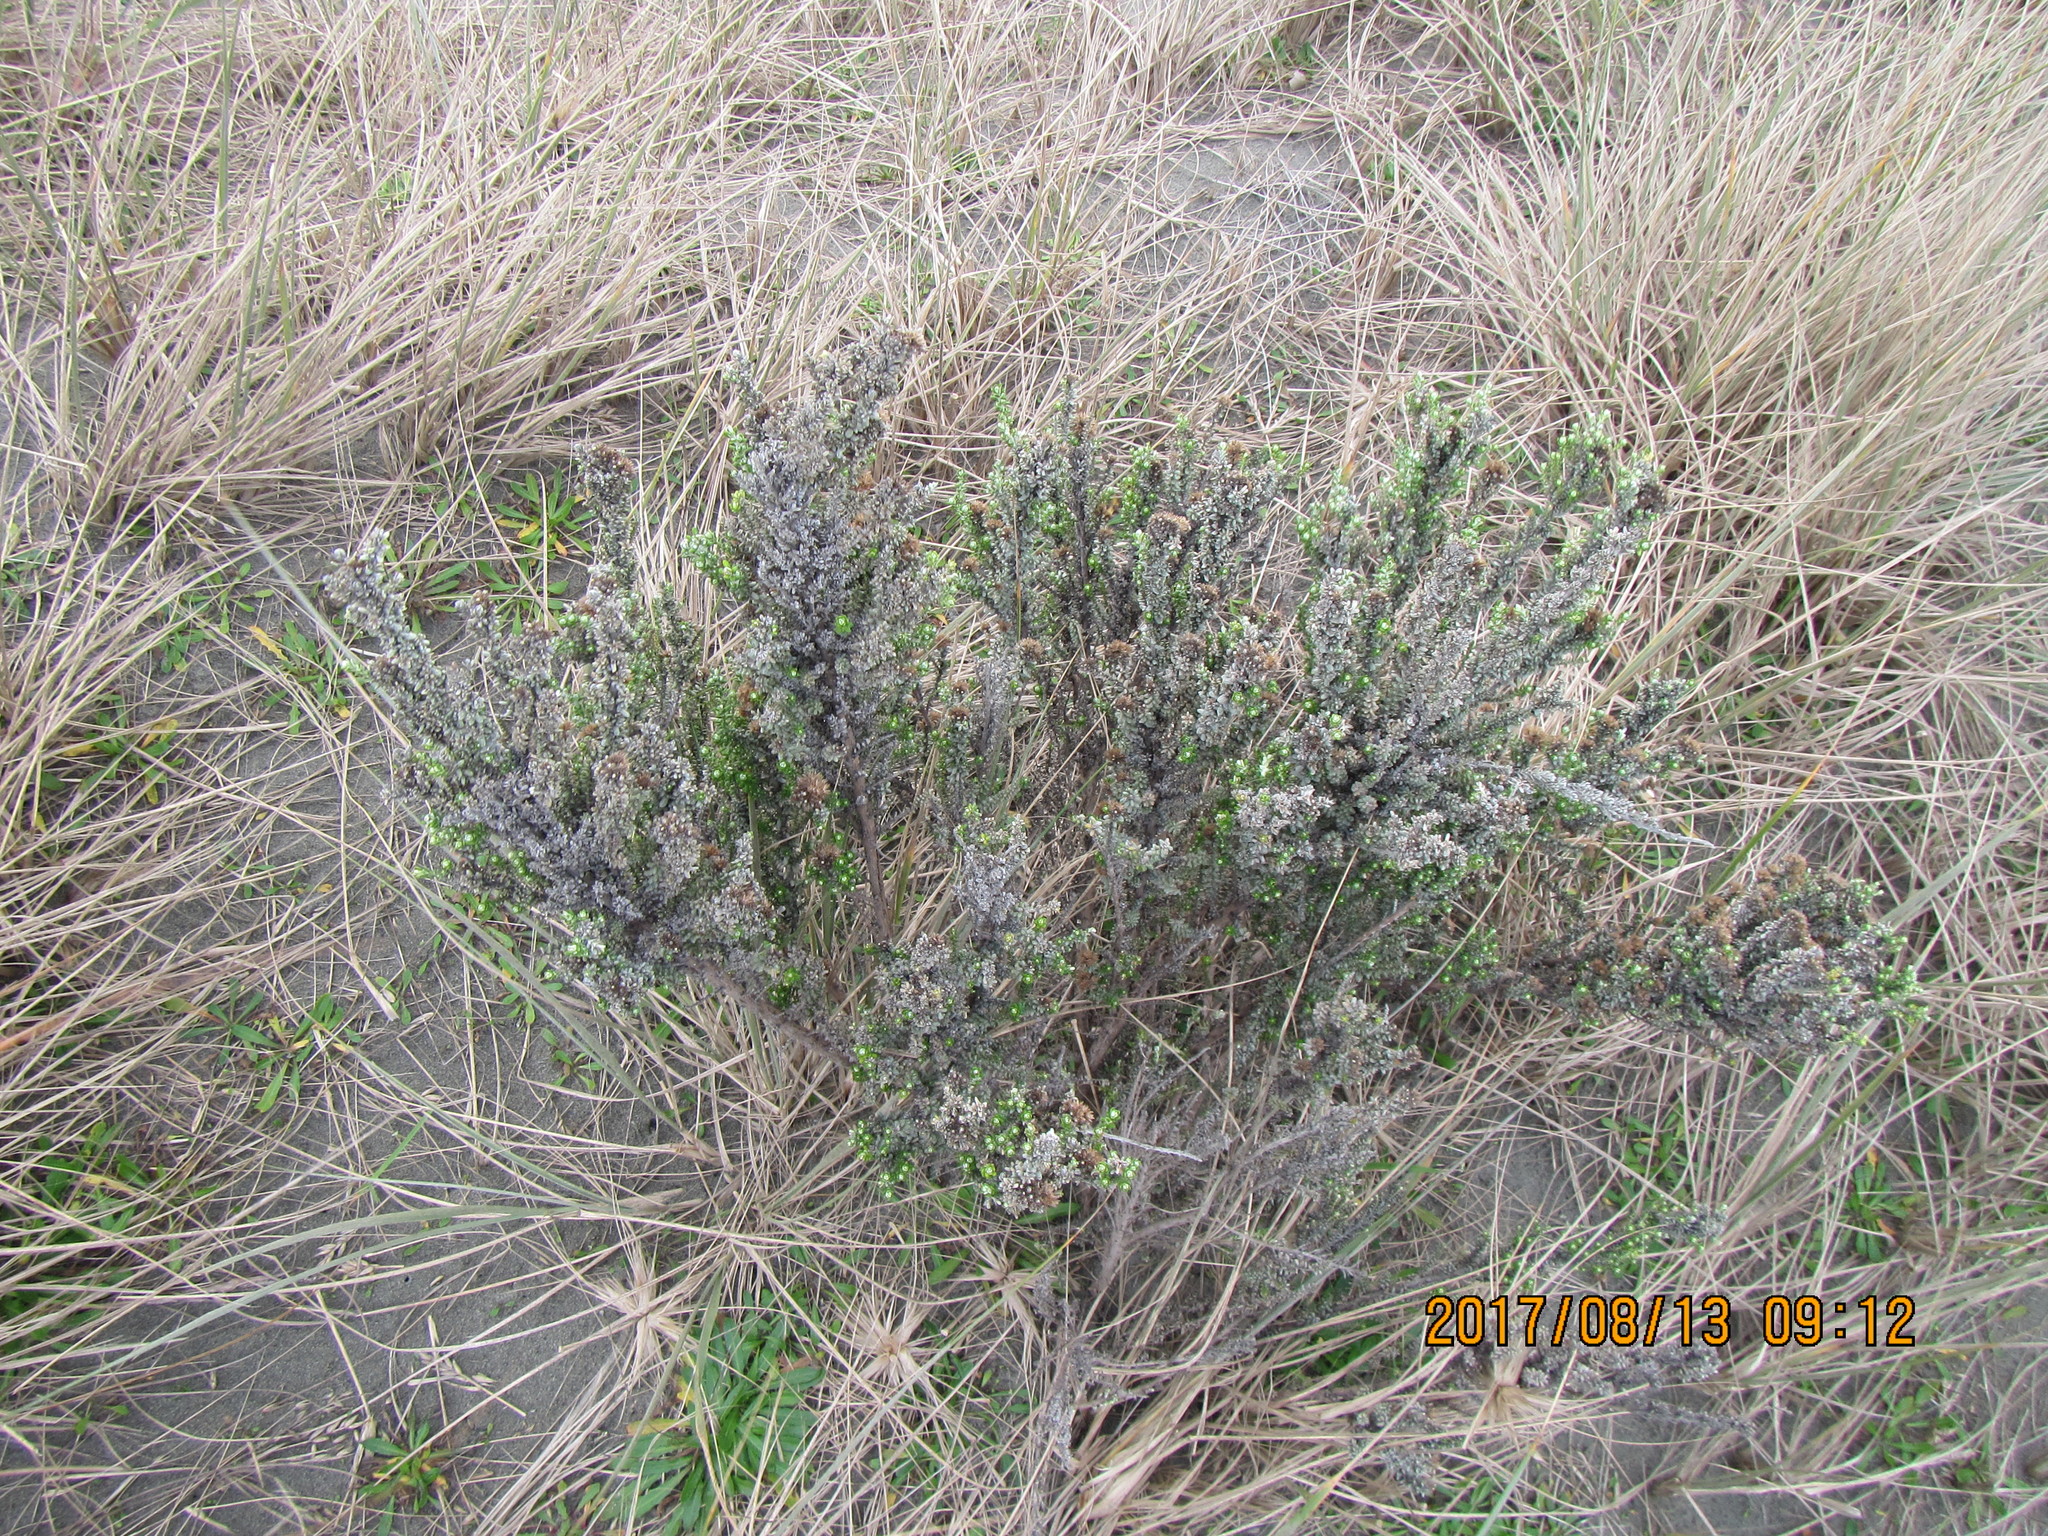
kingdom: Plantae
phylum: Tracheophyta
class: Magnoliopsida
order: Asterales
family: Asteraceae
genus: Ozothamnus
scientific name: Ozothamnus leptophyllus
